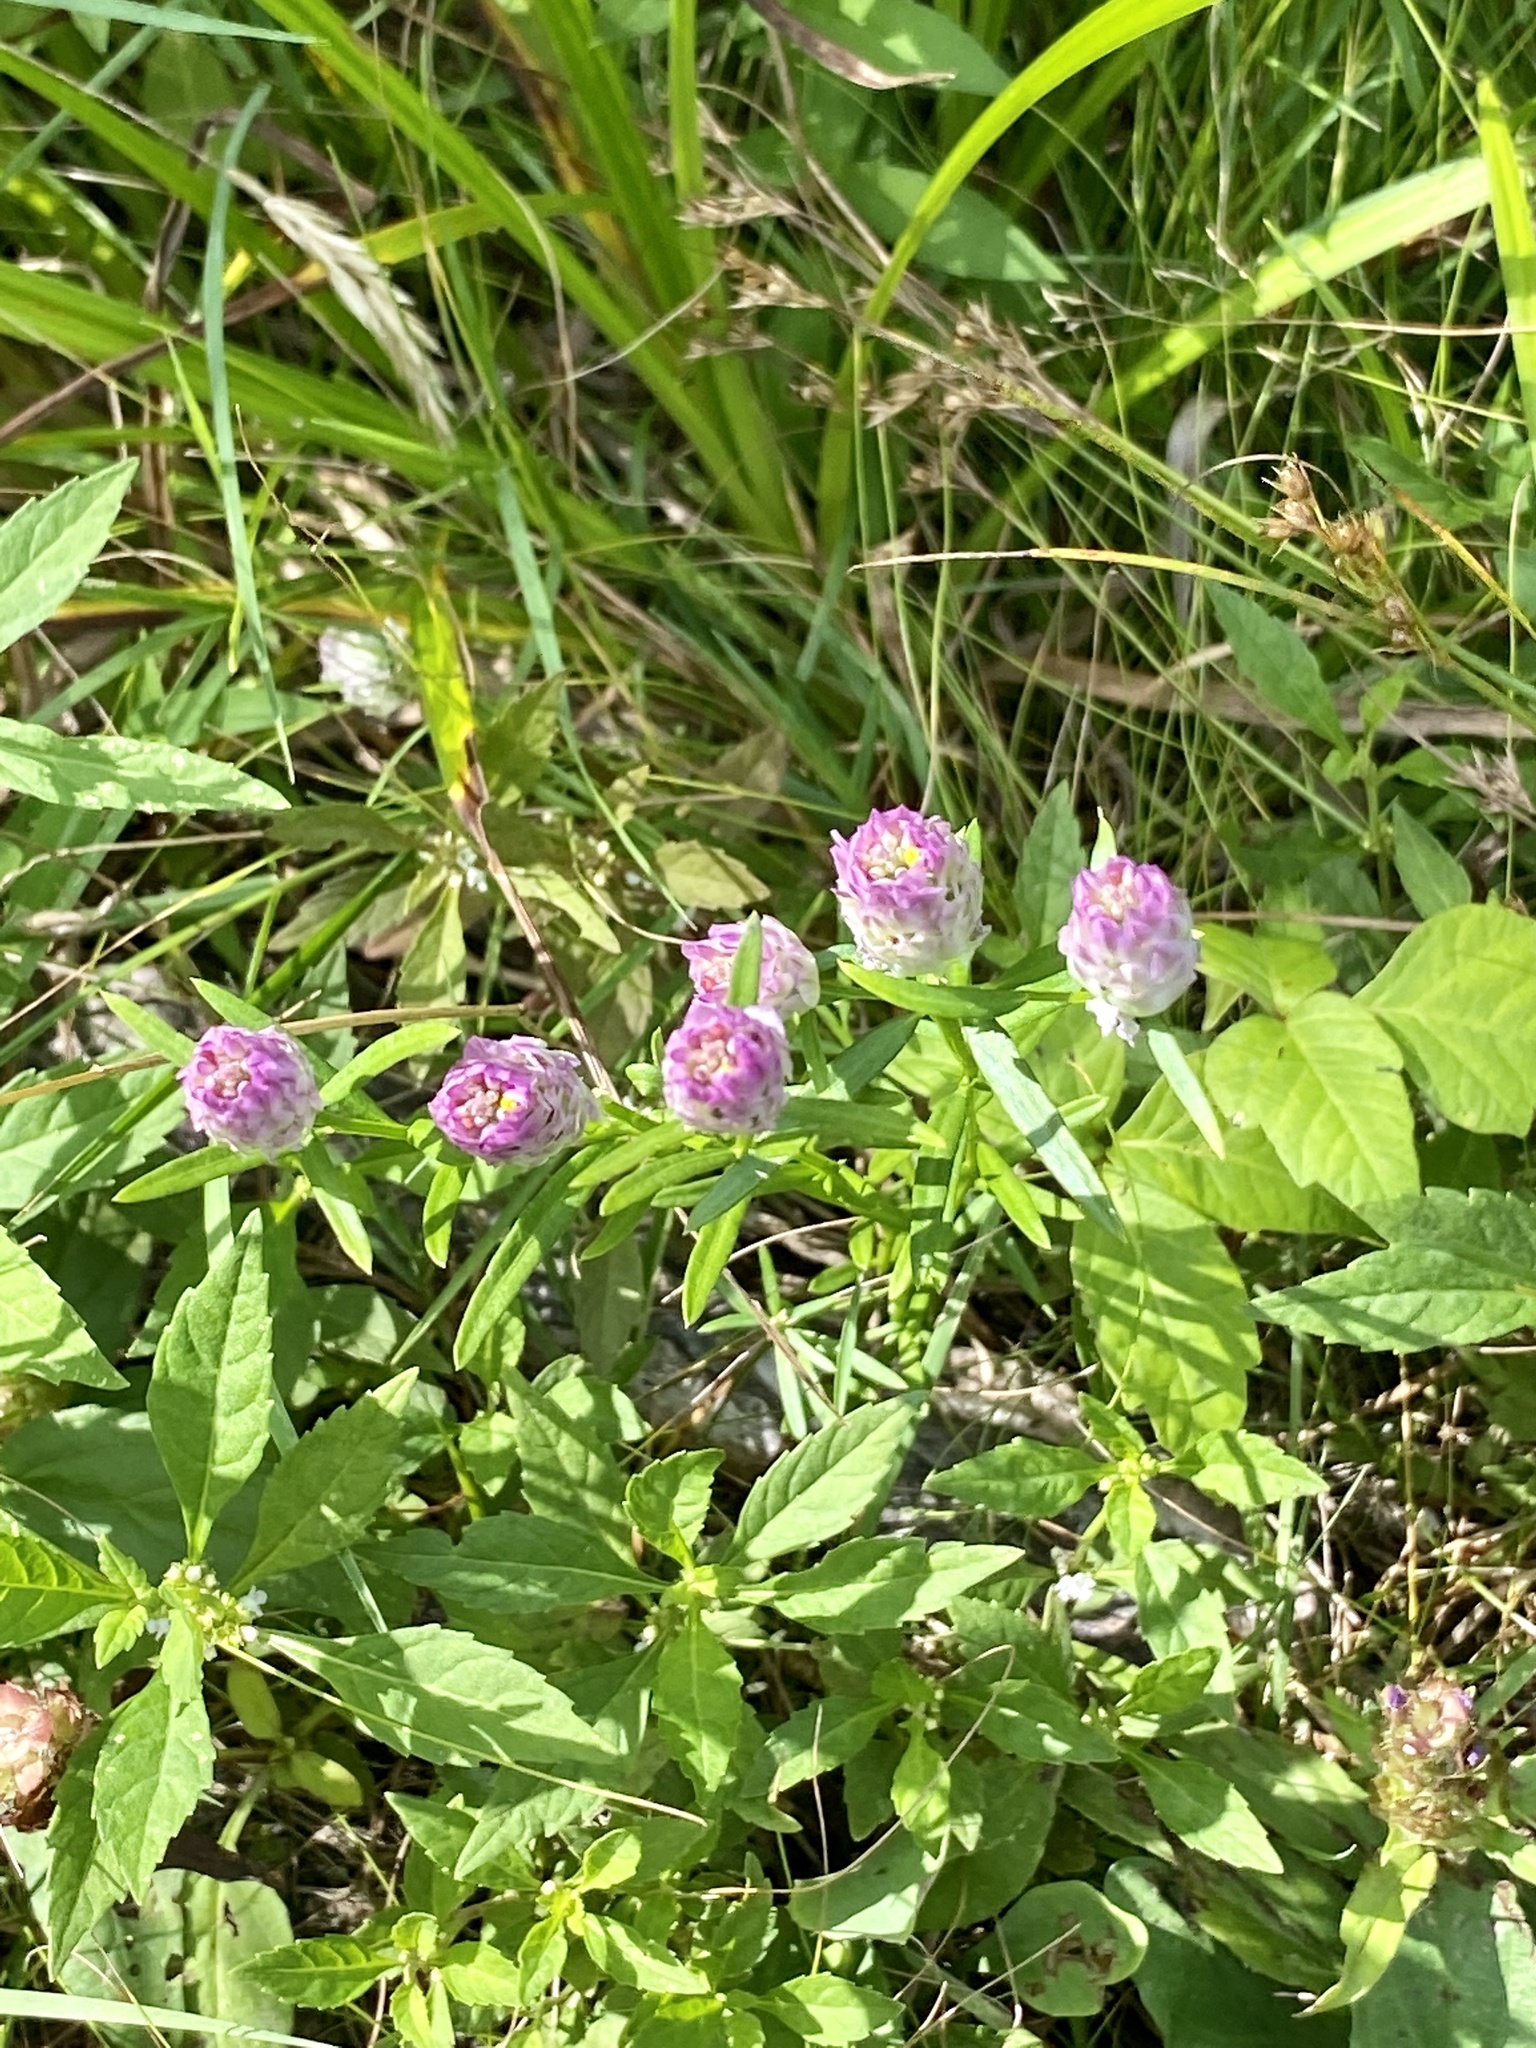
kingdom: Plantae
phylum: Tracheophyta
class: Magnoliopsida
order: Fabales
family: Polygalaceae
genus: Polygala
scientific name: Polygala sanguinea
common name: Blood milkwort
